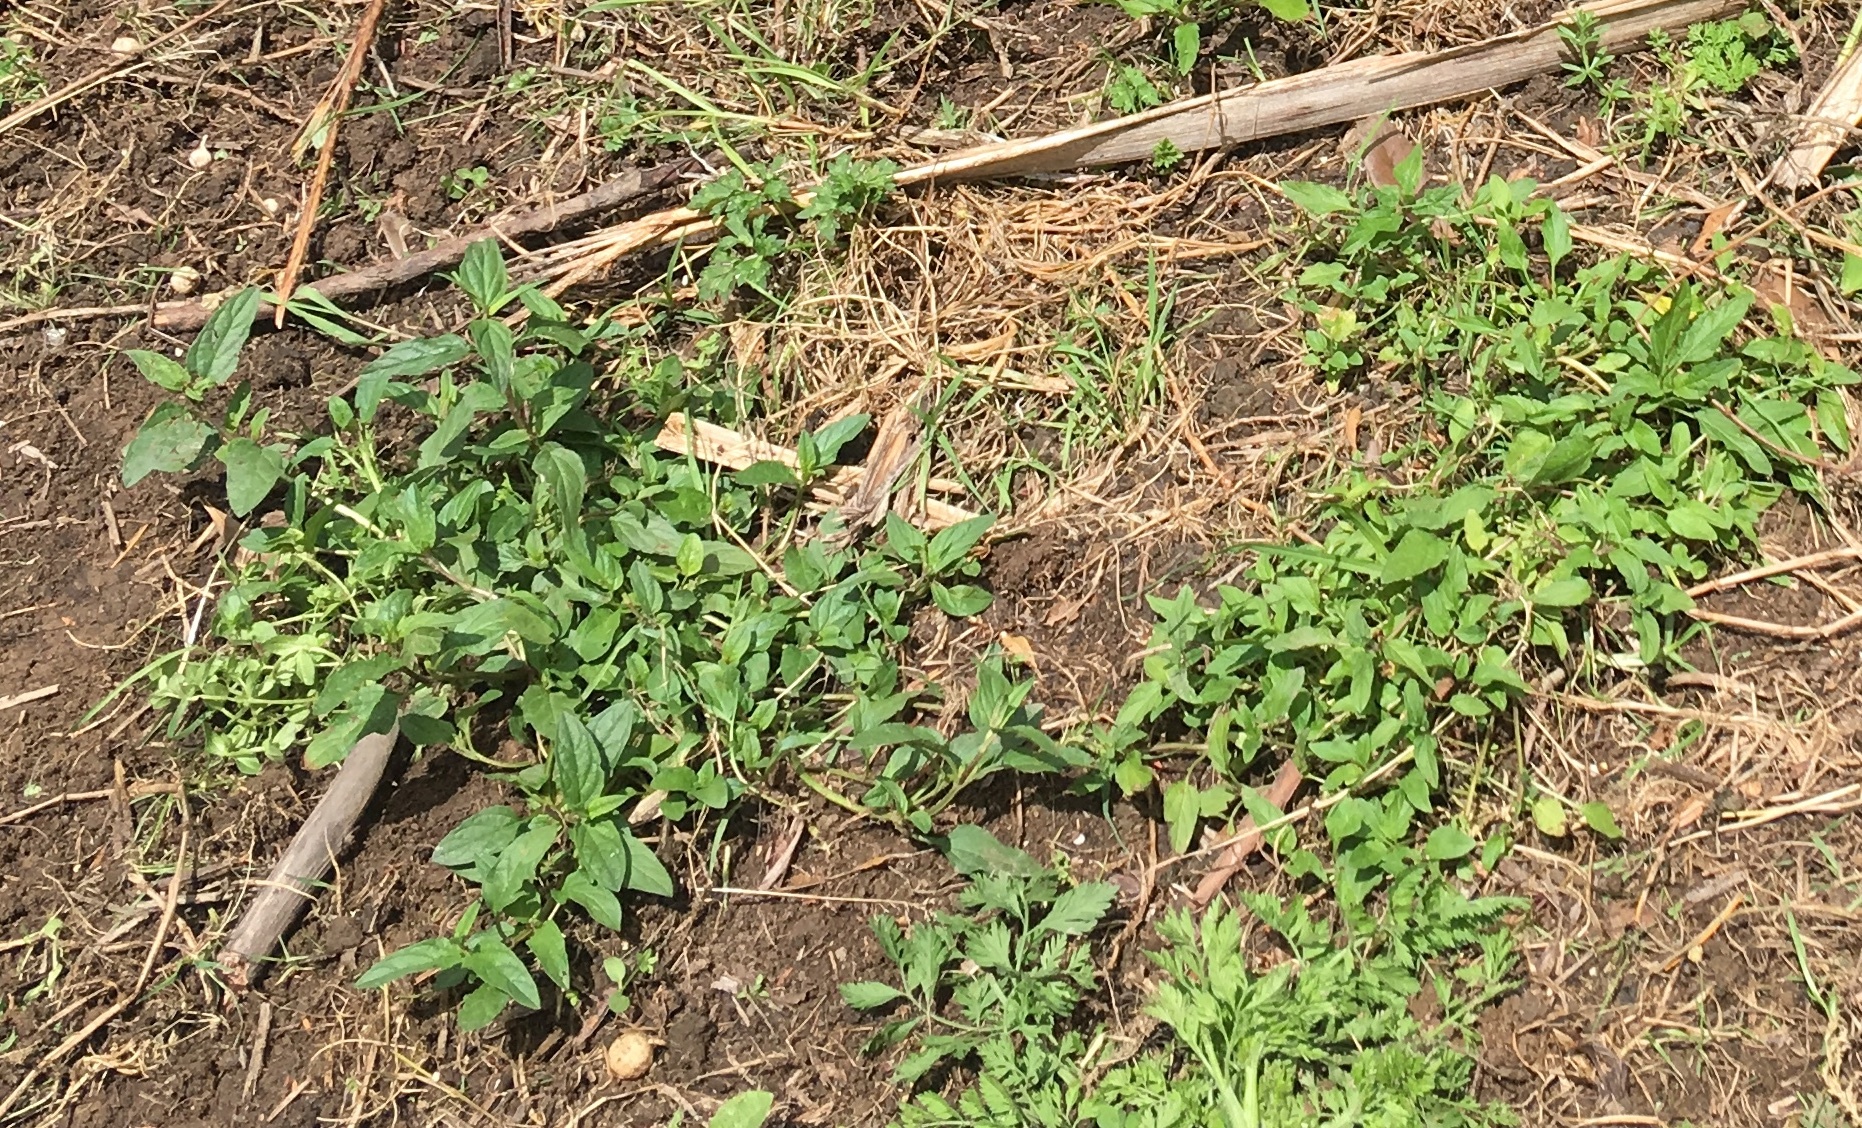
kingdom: Plantae
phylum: Tracheophyta
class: Magnoliopsida
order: Lamiales
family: Lamiaceae
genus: Prunella
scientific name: Prunella vulgaris
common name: Heal-all
